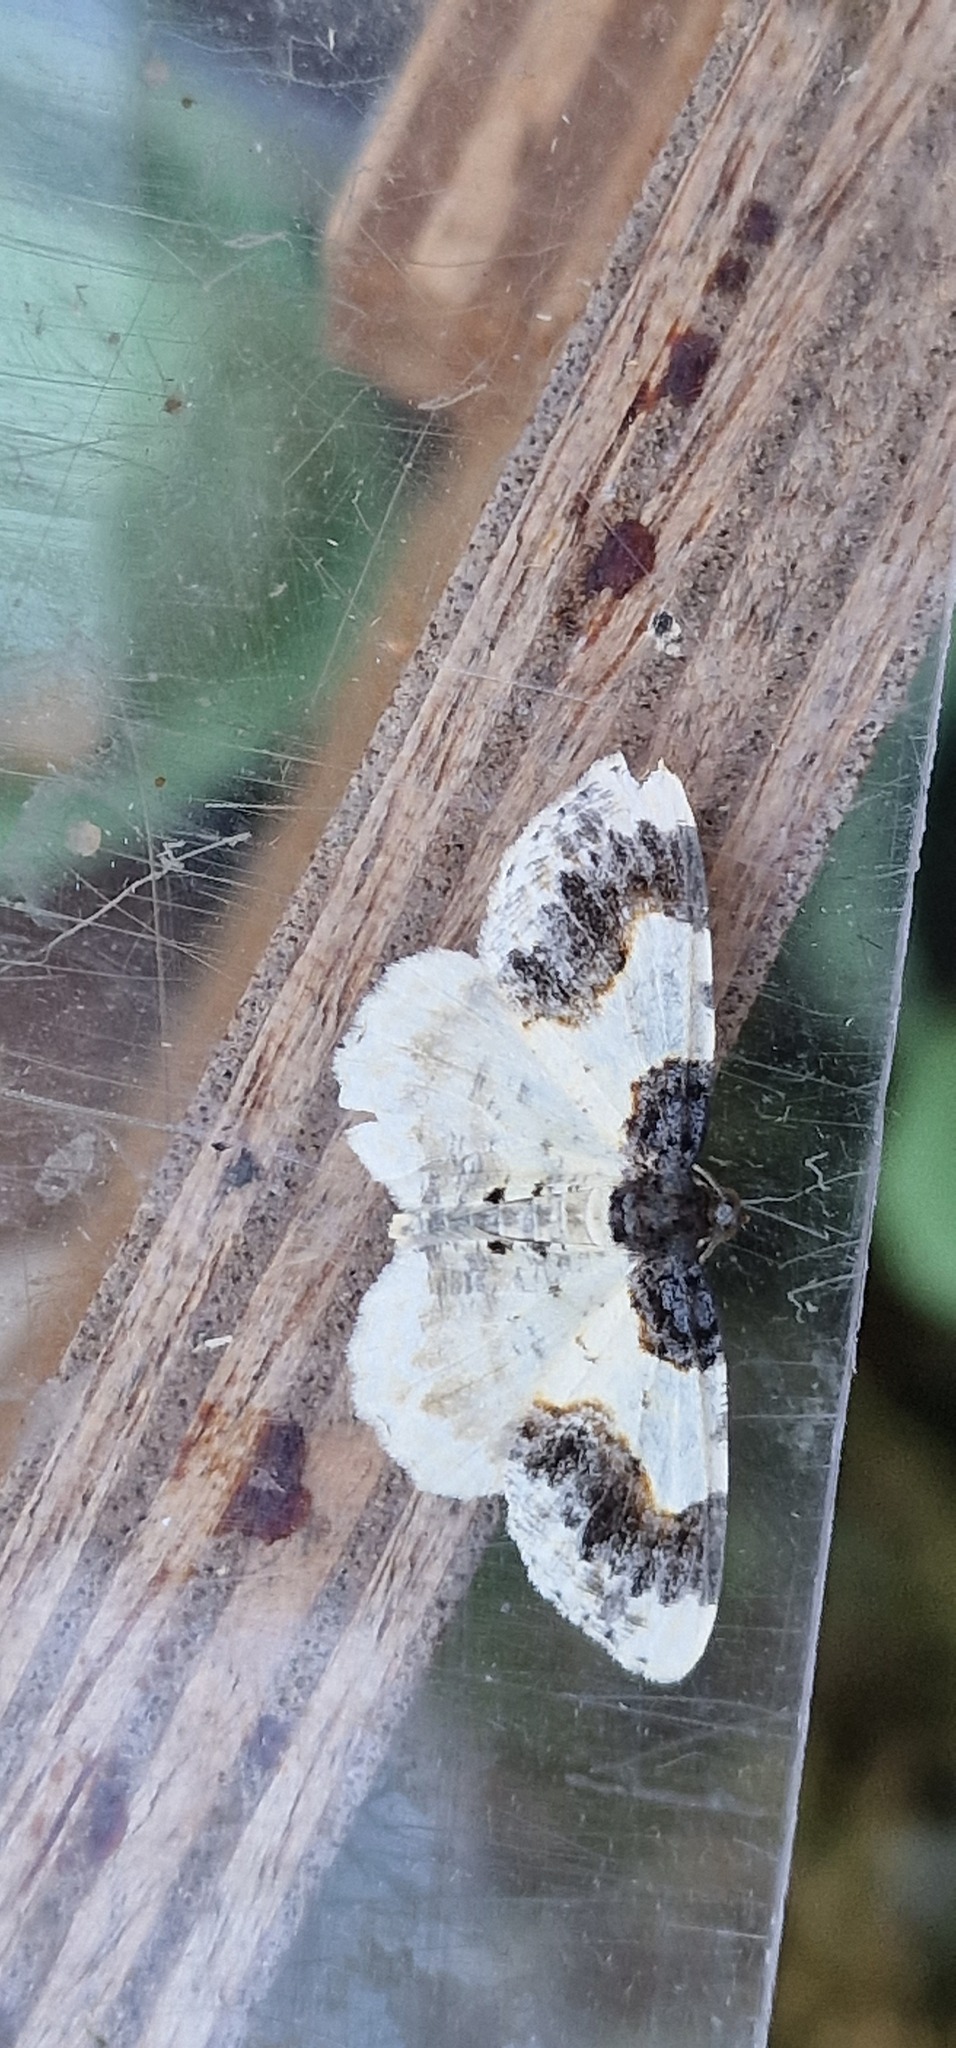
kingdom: Animalia
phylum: Arthropoda
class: Insecta
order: Lepidoptera
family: Geometridae
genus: Ligdia
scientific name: Ligdia adustata
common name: Scorched carpet
